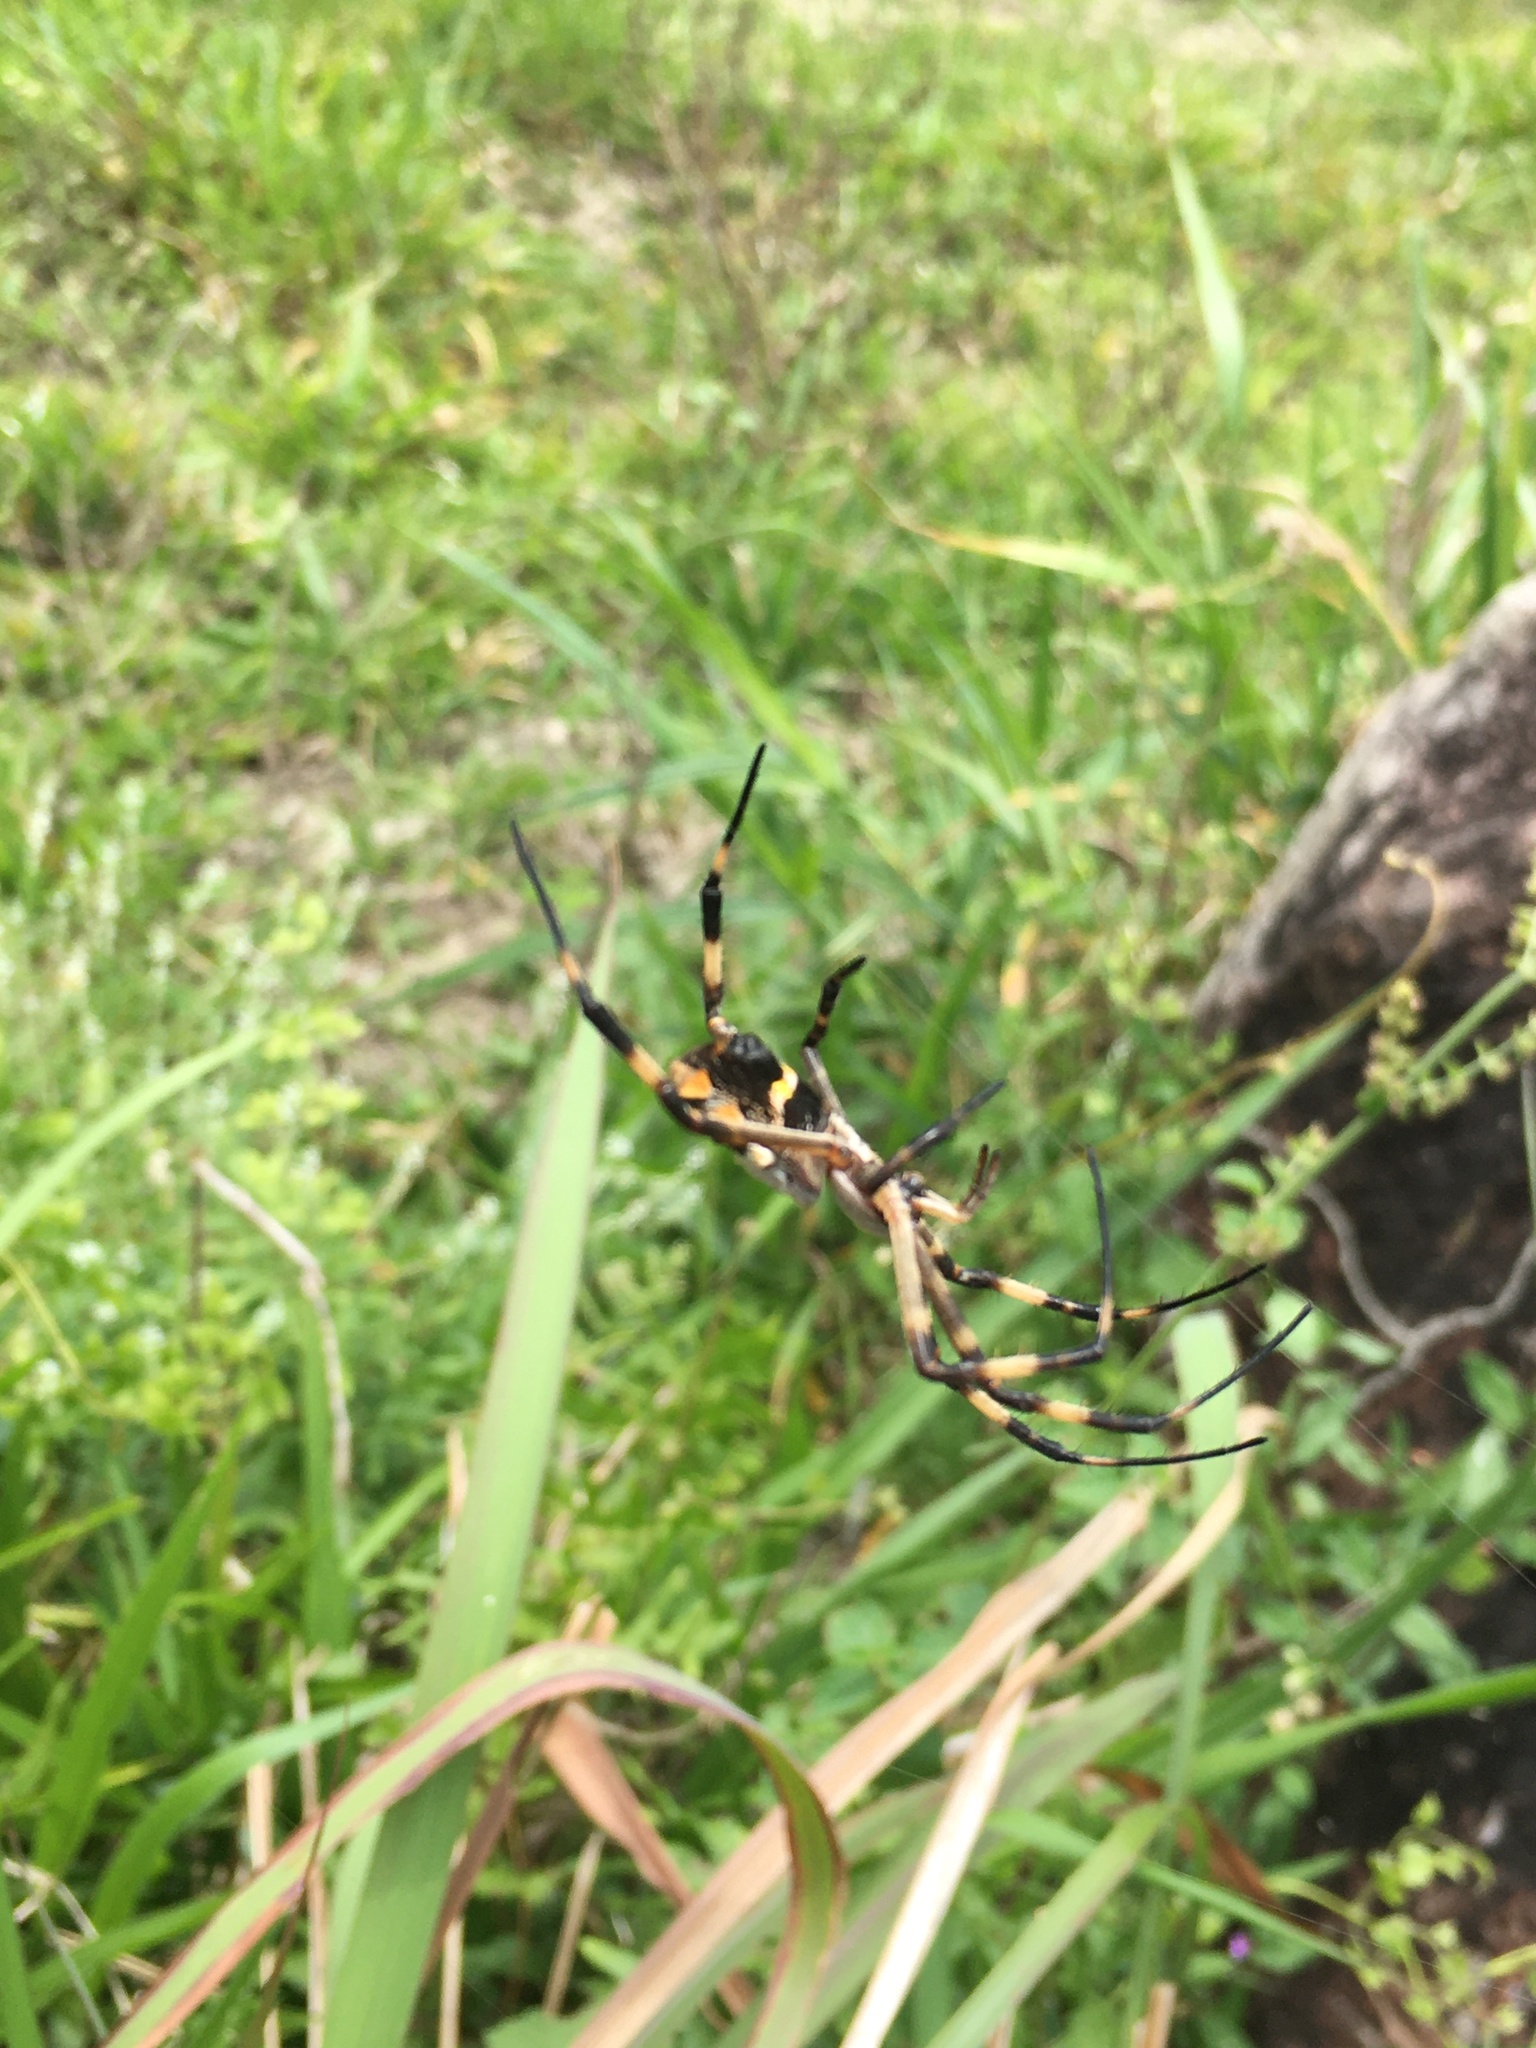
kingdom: Animalia
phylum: Arthropoda
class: Arachnida
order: Araneae
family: Araneidae
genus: Argiope
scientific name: Argiope argentata
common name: Orb weavers
